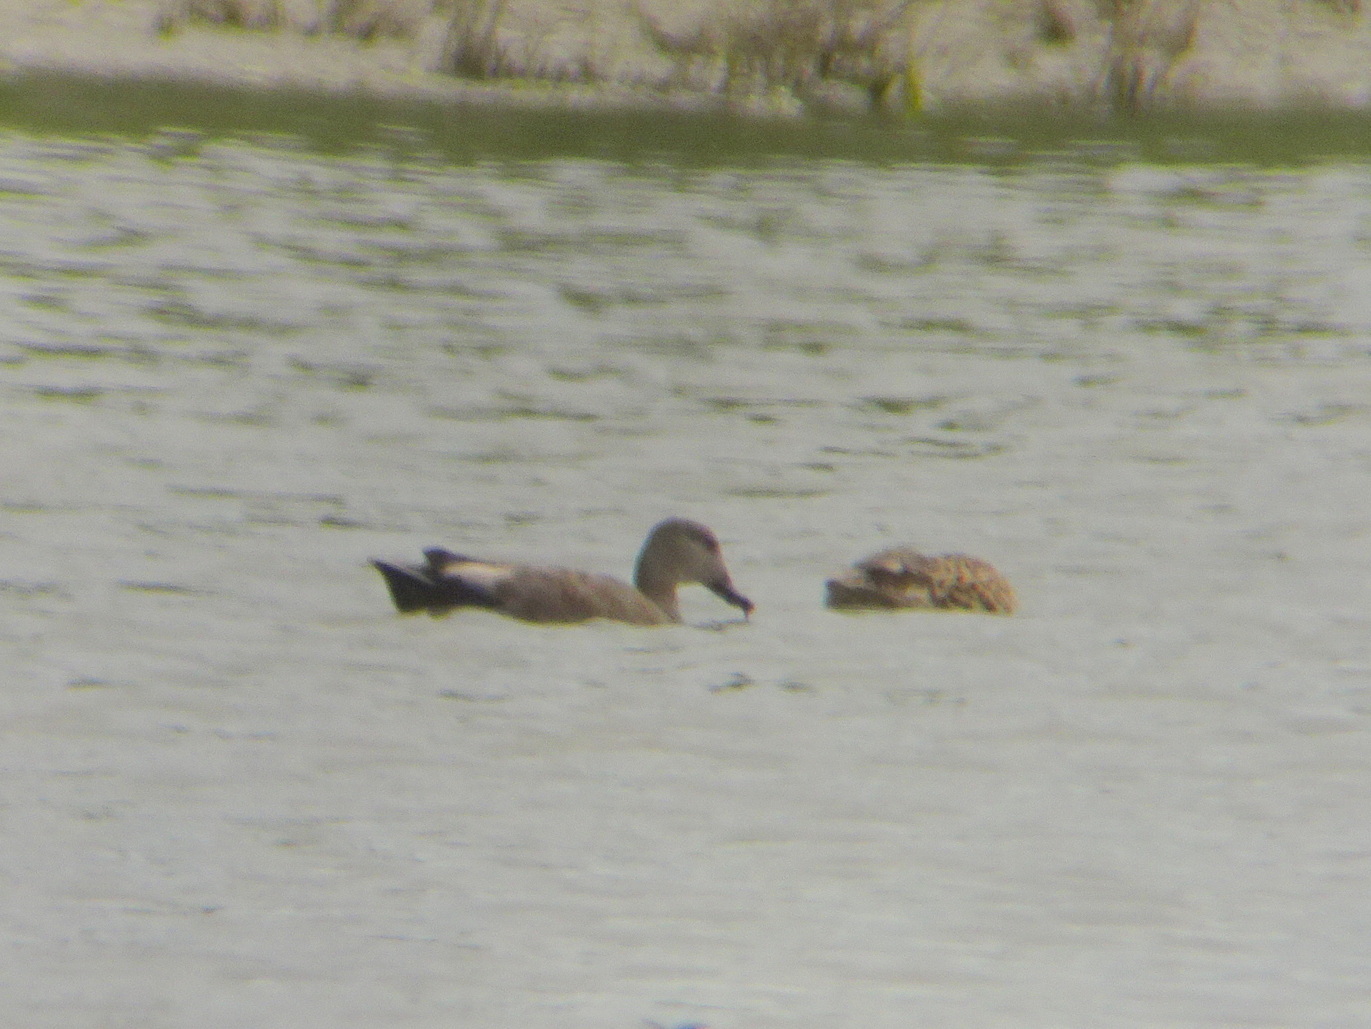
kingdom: Animalia
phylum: Chordata
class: Aves
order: Anseriformes
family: Anatidae
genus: Mareca
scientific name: Mareca strepera
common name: Gadwall
